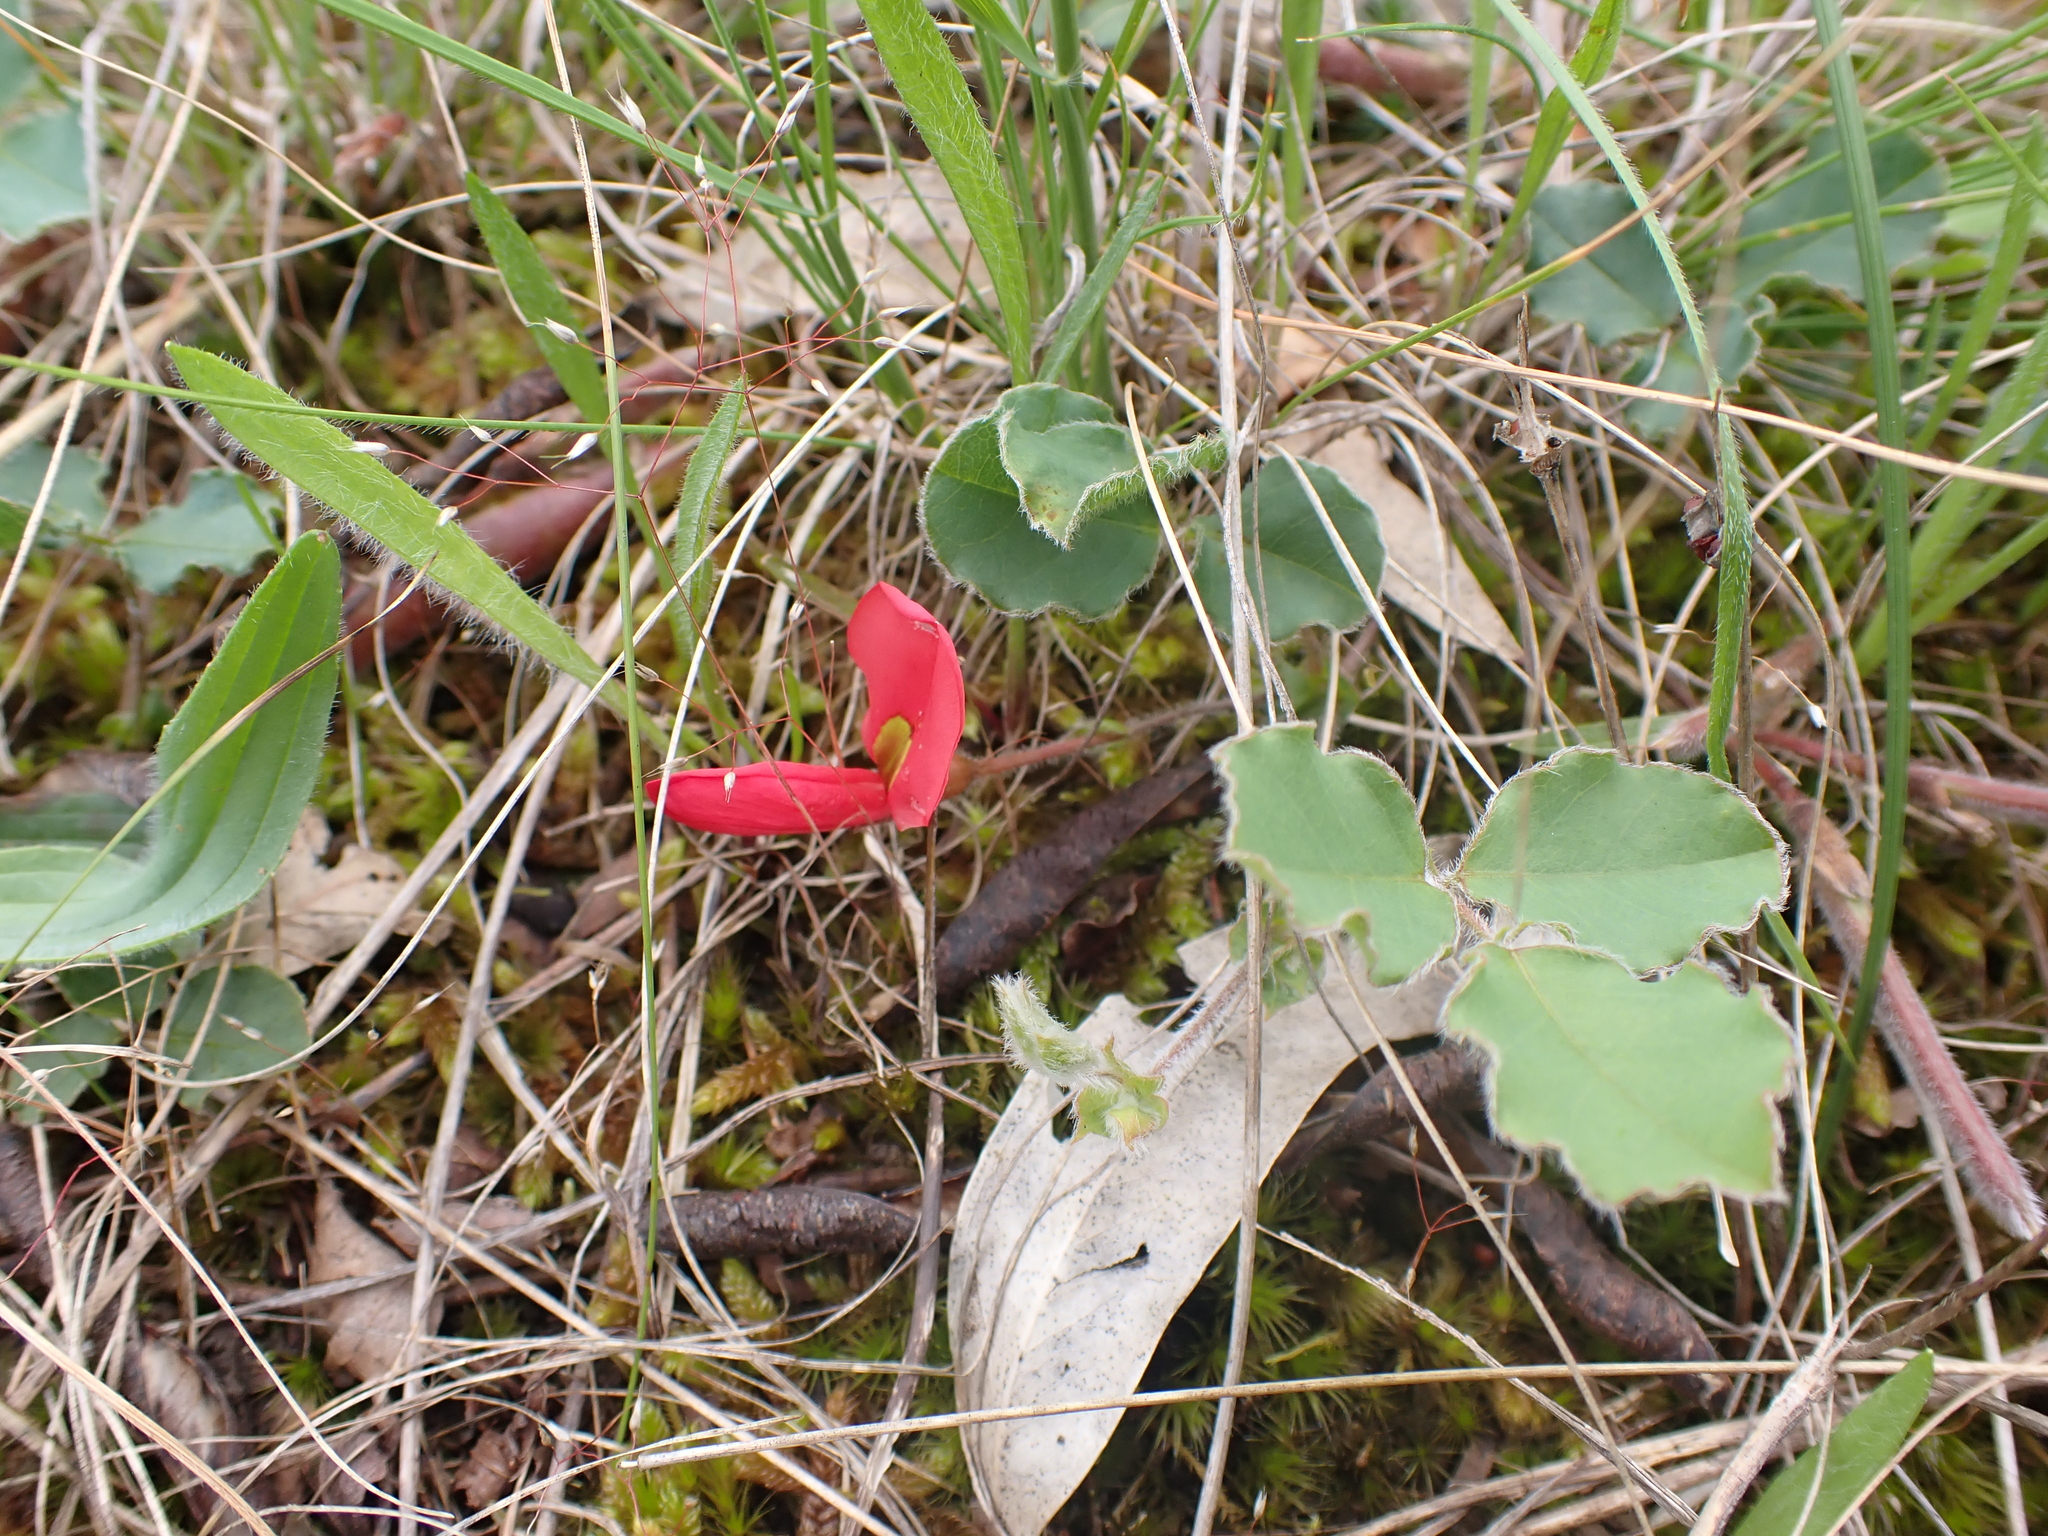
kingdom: Plantae
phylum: Tracheophyta
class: Magnoliopsida
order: Fabales
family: Fabaceae
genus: Kennedia
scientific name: Kennedia prostrata
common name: Running-postman
